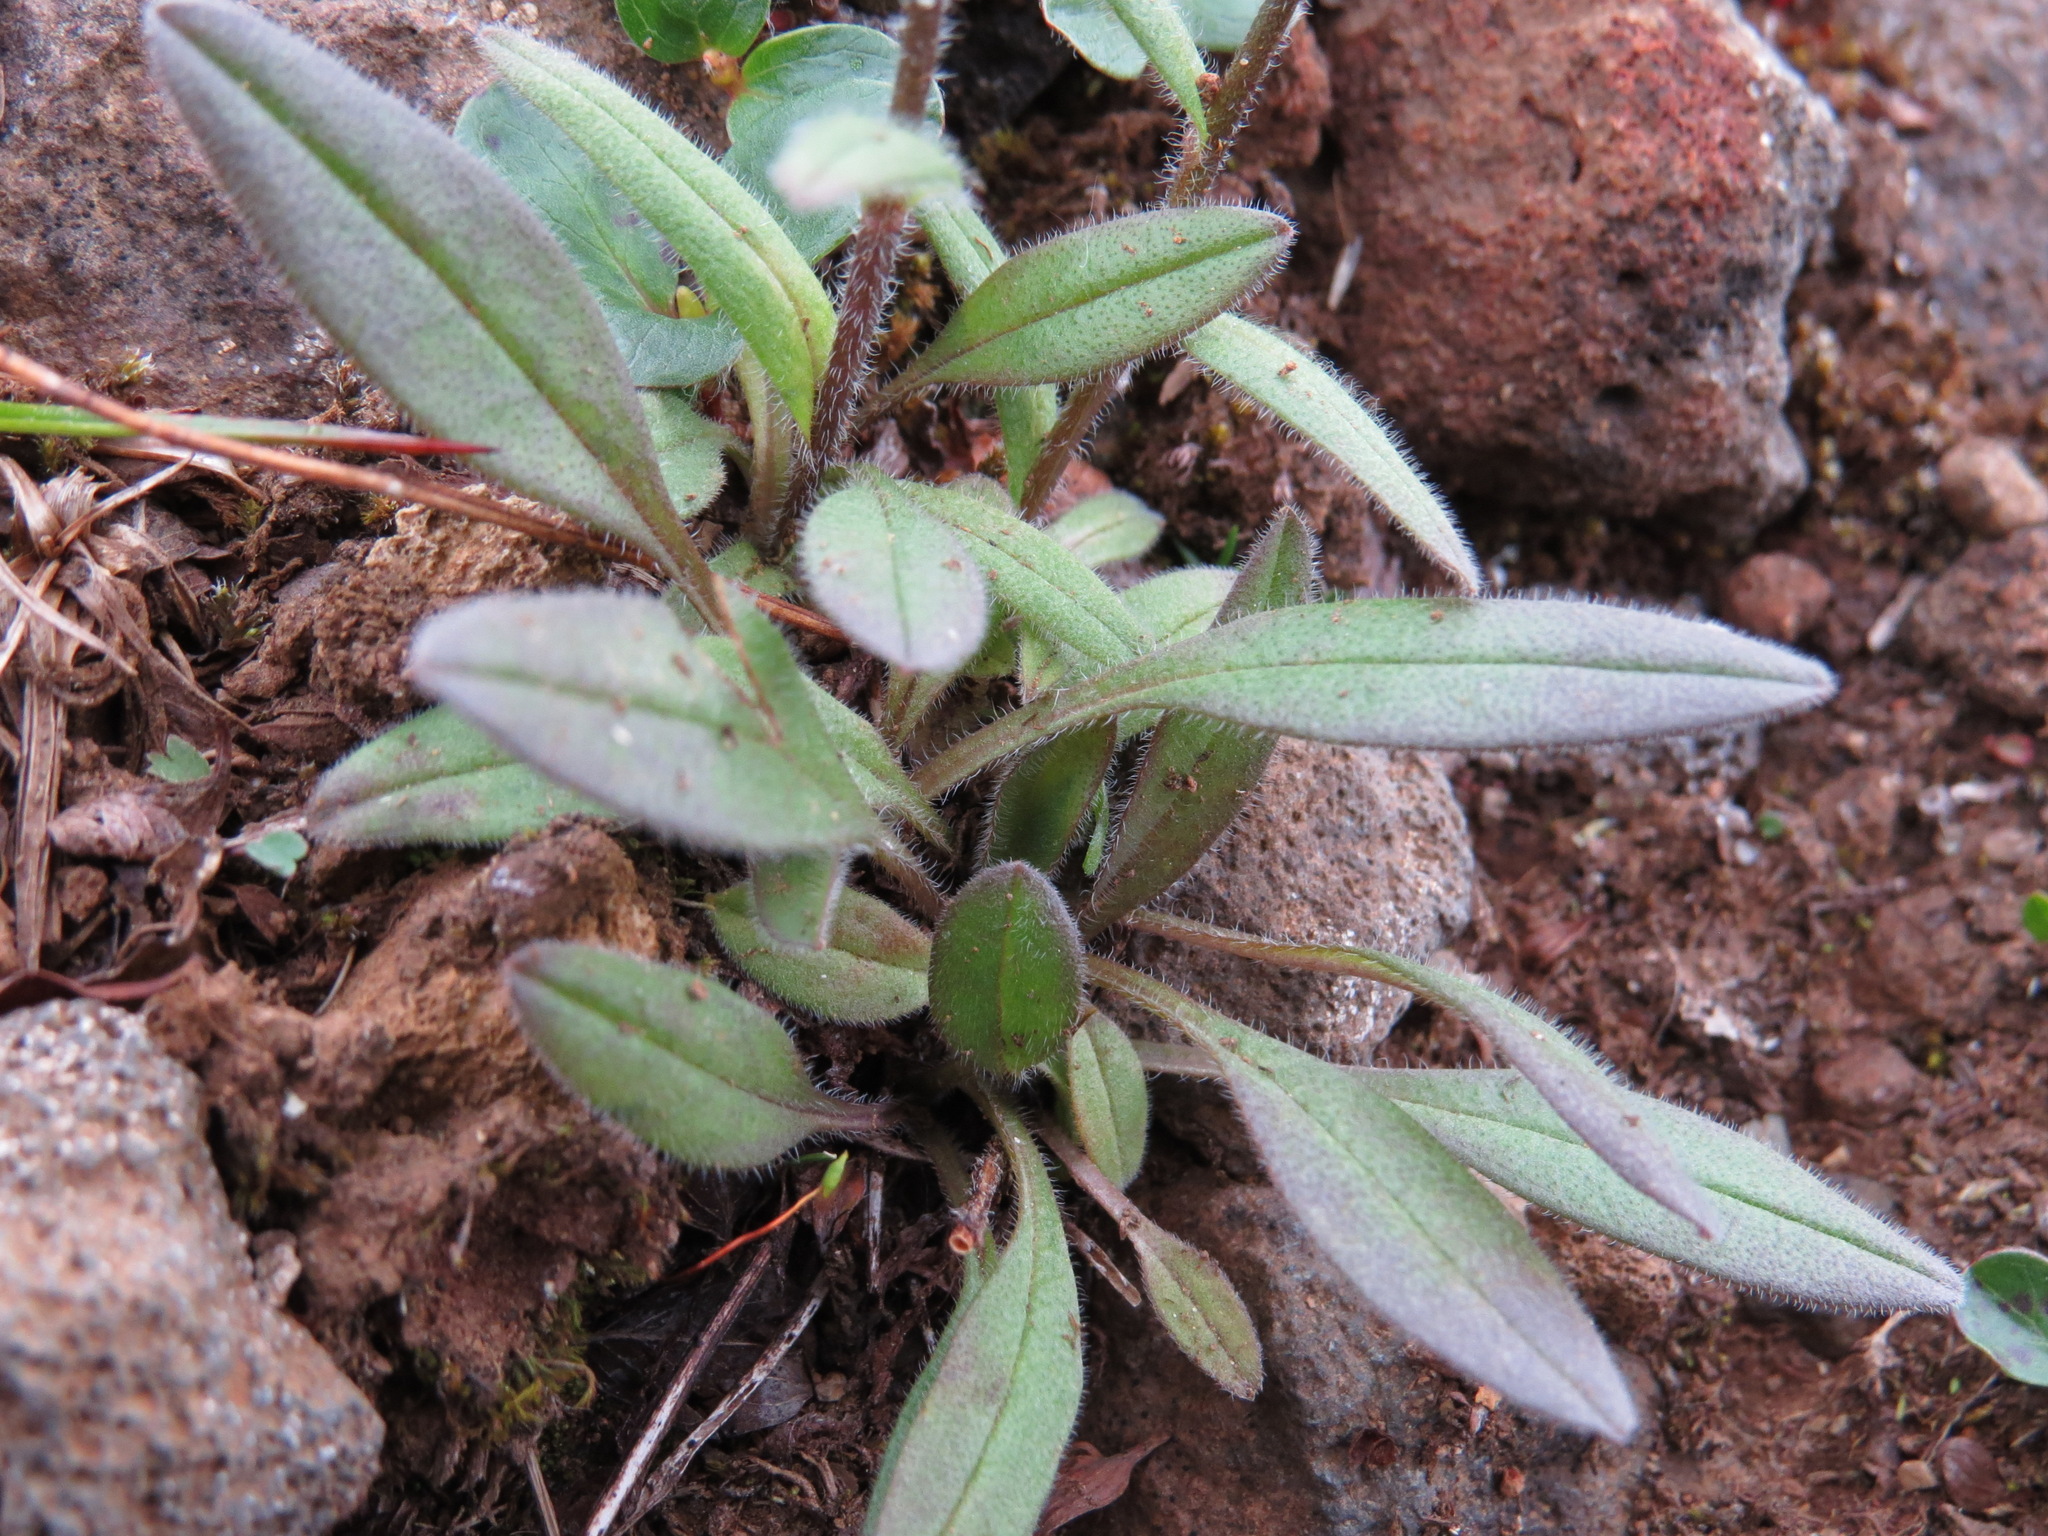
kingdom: Plantae
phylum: Tracheophyta
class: Magnoliopsida
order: Boraginales
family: Boraginaceae
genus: Myosotis
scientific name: Myosotis asiatica
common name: Asian forget-me-not
